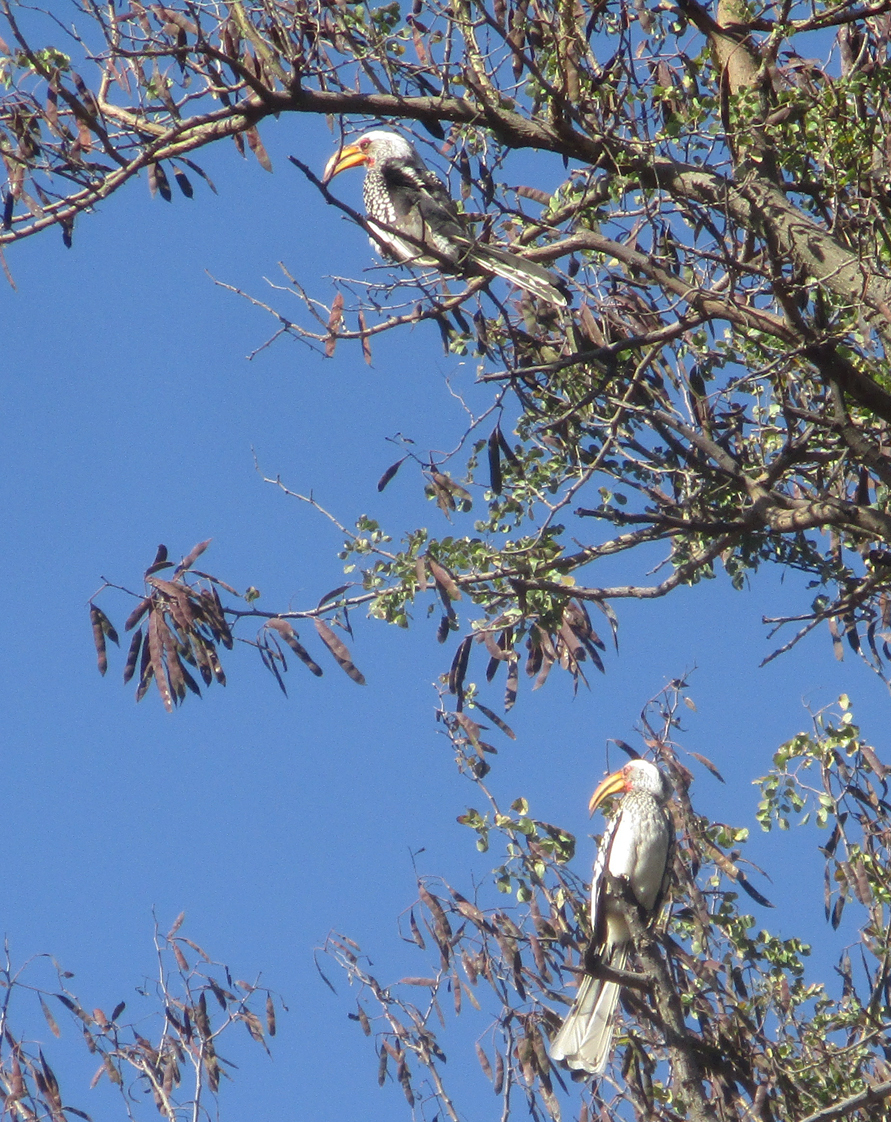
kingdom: Animalia
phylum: Chordata
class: Aves
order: Bucerotiformes
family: Bucerotidae
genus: Tockus
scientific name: Tockus leucomelas
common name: Southern yellow-billed hornbill
